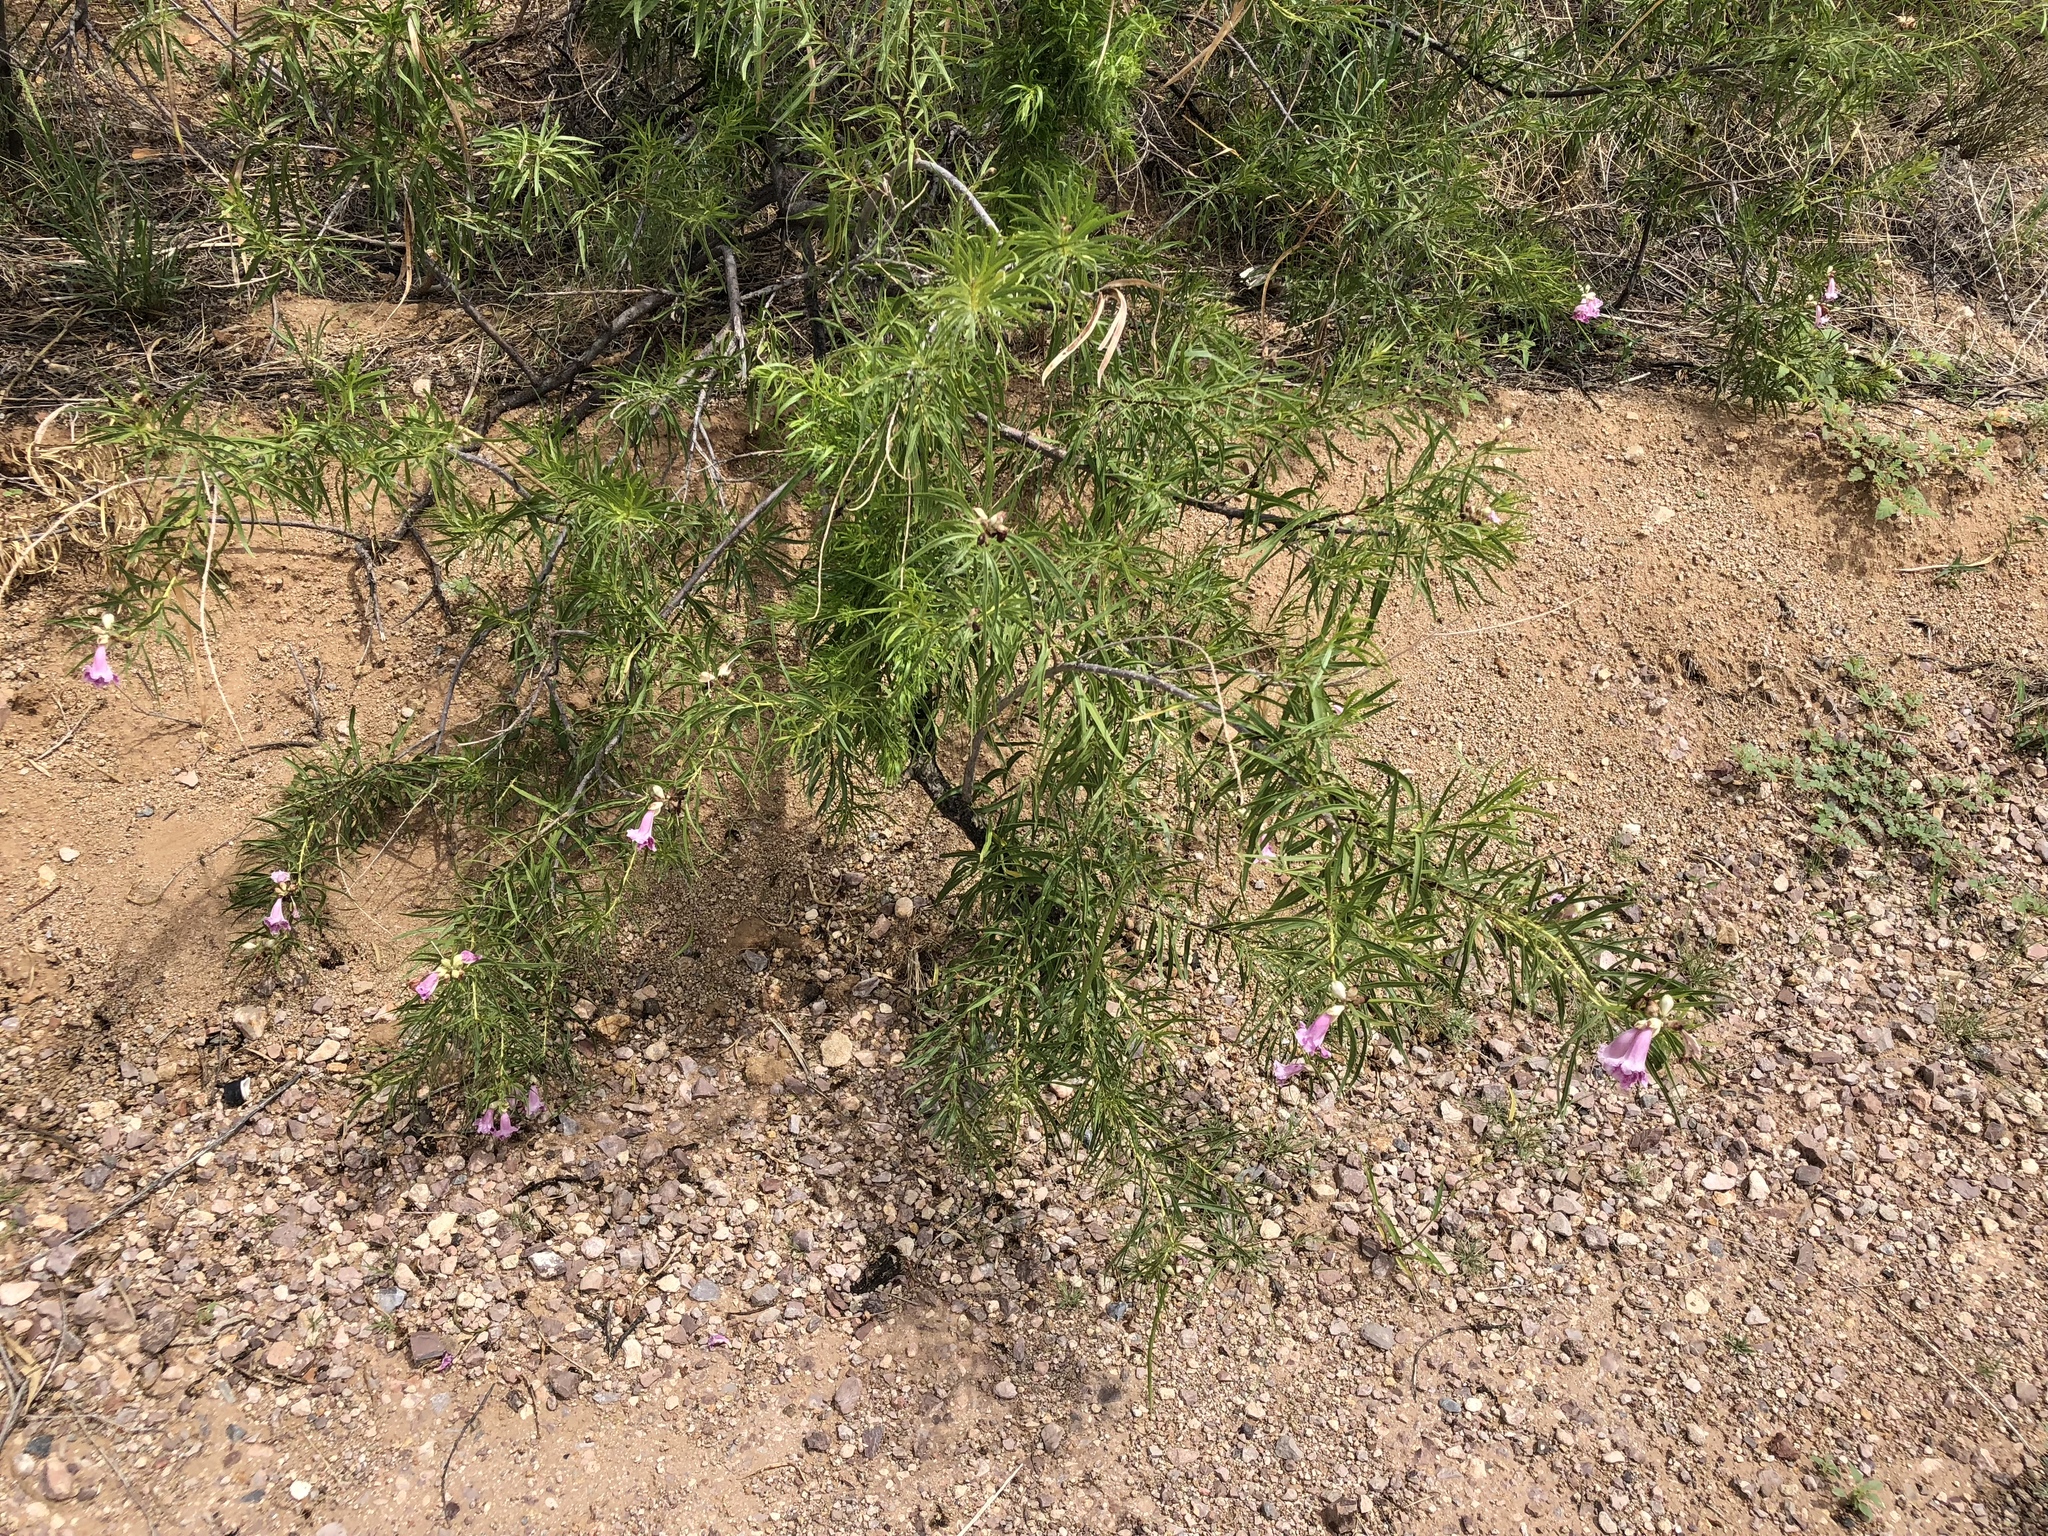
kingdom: Plantae
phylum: Tracheophyta
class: Magnoliopsida
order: Lamiales
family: Bignoniaceae
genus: Chilopsis
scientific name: Chilopsis linearis
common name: Desert-willow
